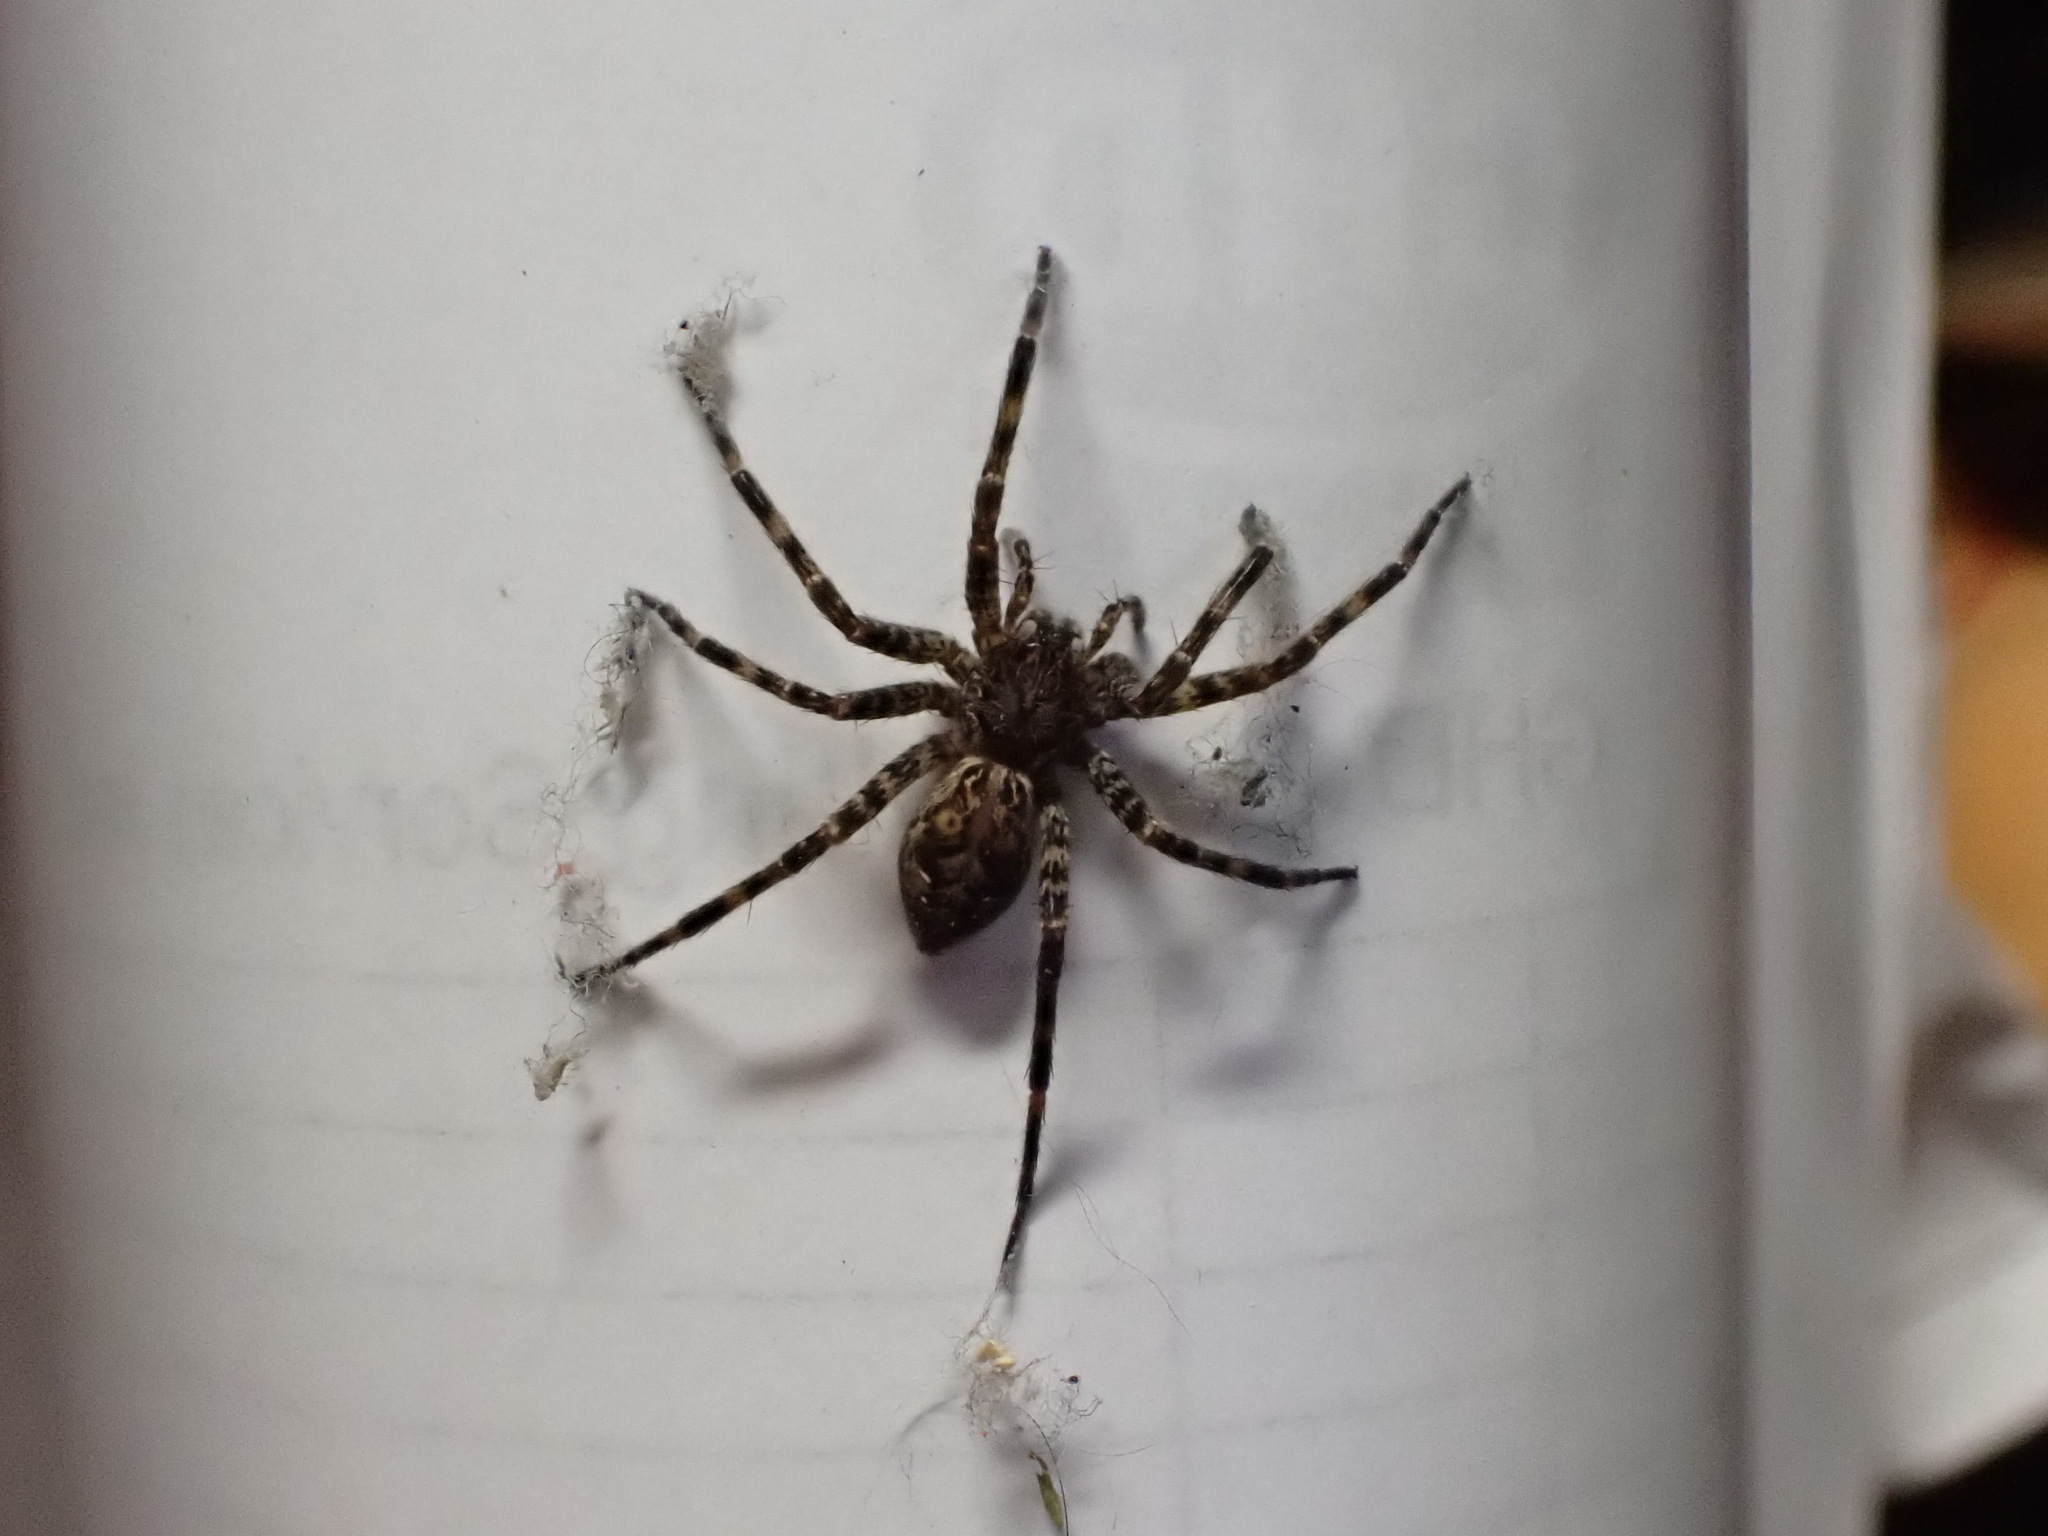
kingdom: Animalia
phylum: Arthropoda
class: Arachnida
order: Araneae
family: Pisauridae
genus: Dolomedes
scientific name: Dolomedes tenebrosus
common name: Dark fishing spider
